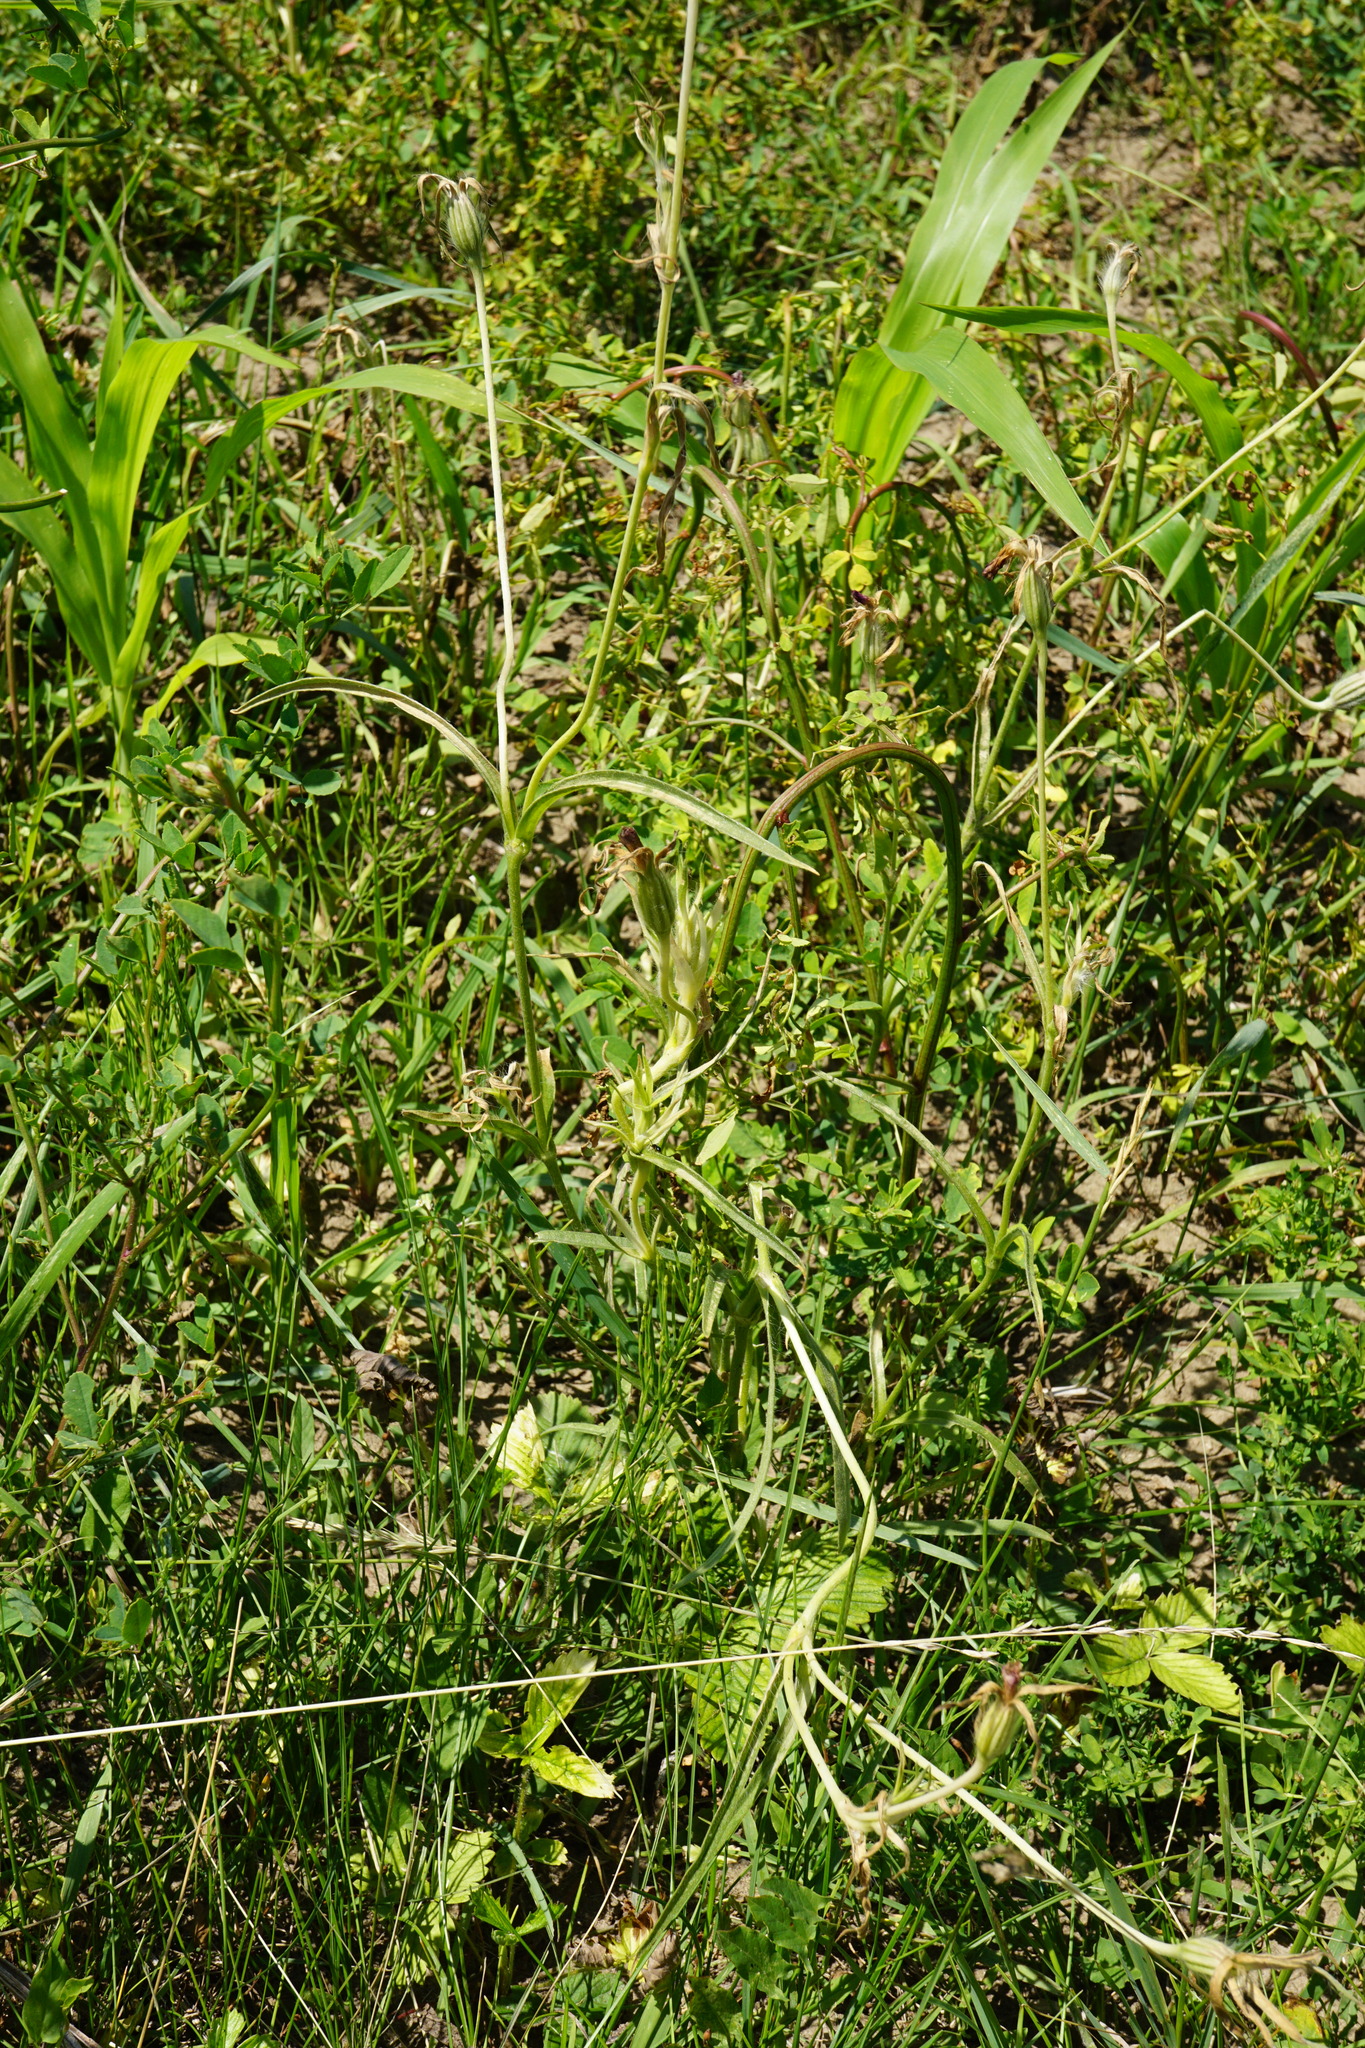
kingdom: Plantae
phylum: Tracheophyta
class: Magnoliopsida
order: Caryophyllales
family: Caryophyllaceae
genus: Agrostemma
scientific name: Agrostemma githago
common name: Common corncockle
